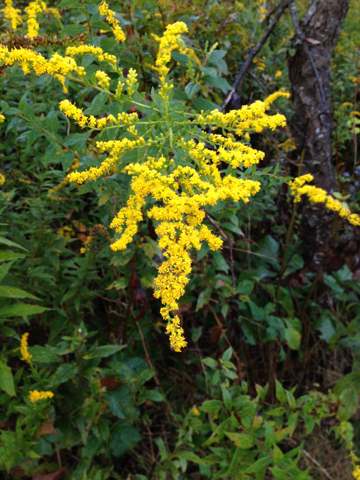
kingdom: Plantae
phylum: Tracheophyta
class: Magnoliopsida
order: Asterales
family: Asteraceae
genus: Solidago
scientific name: Solidago
